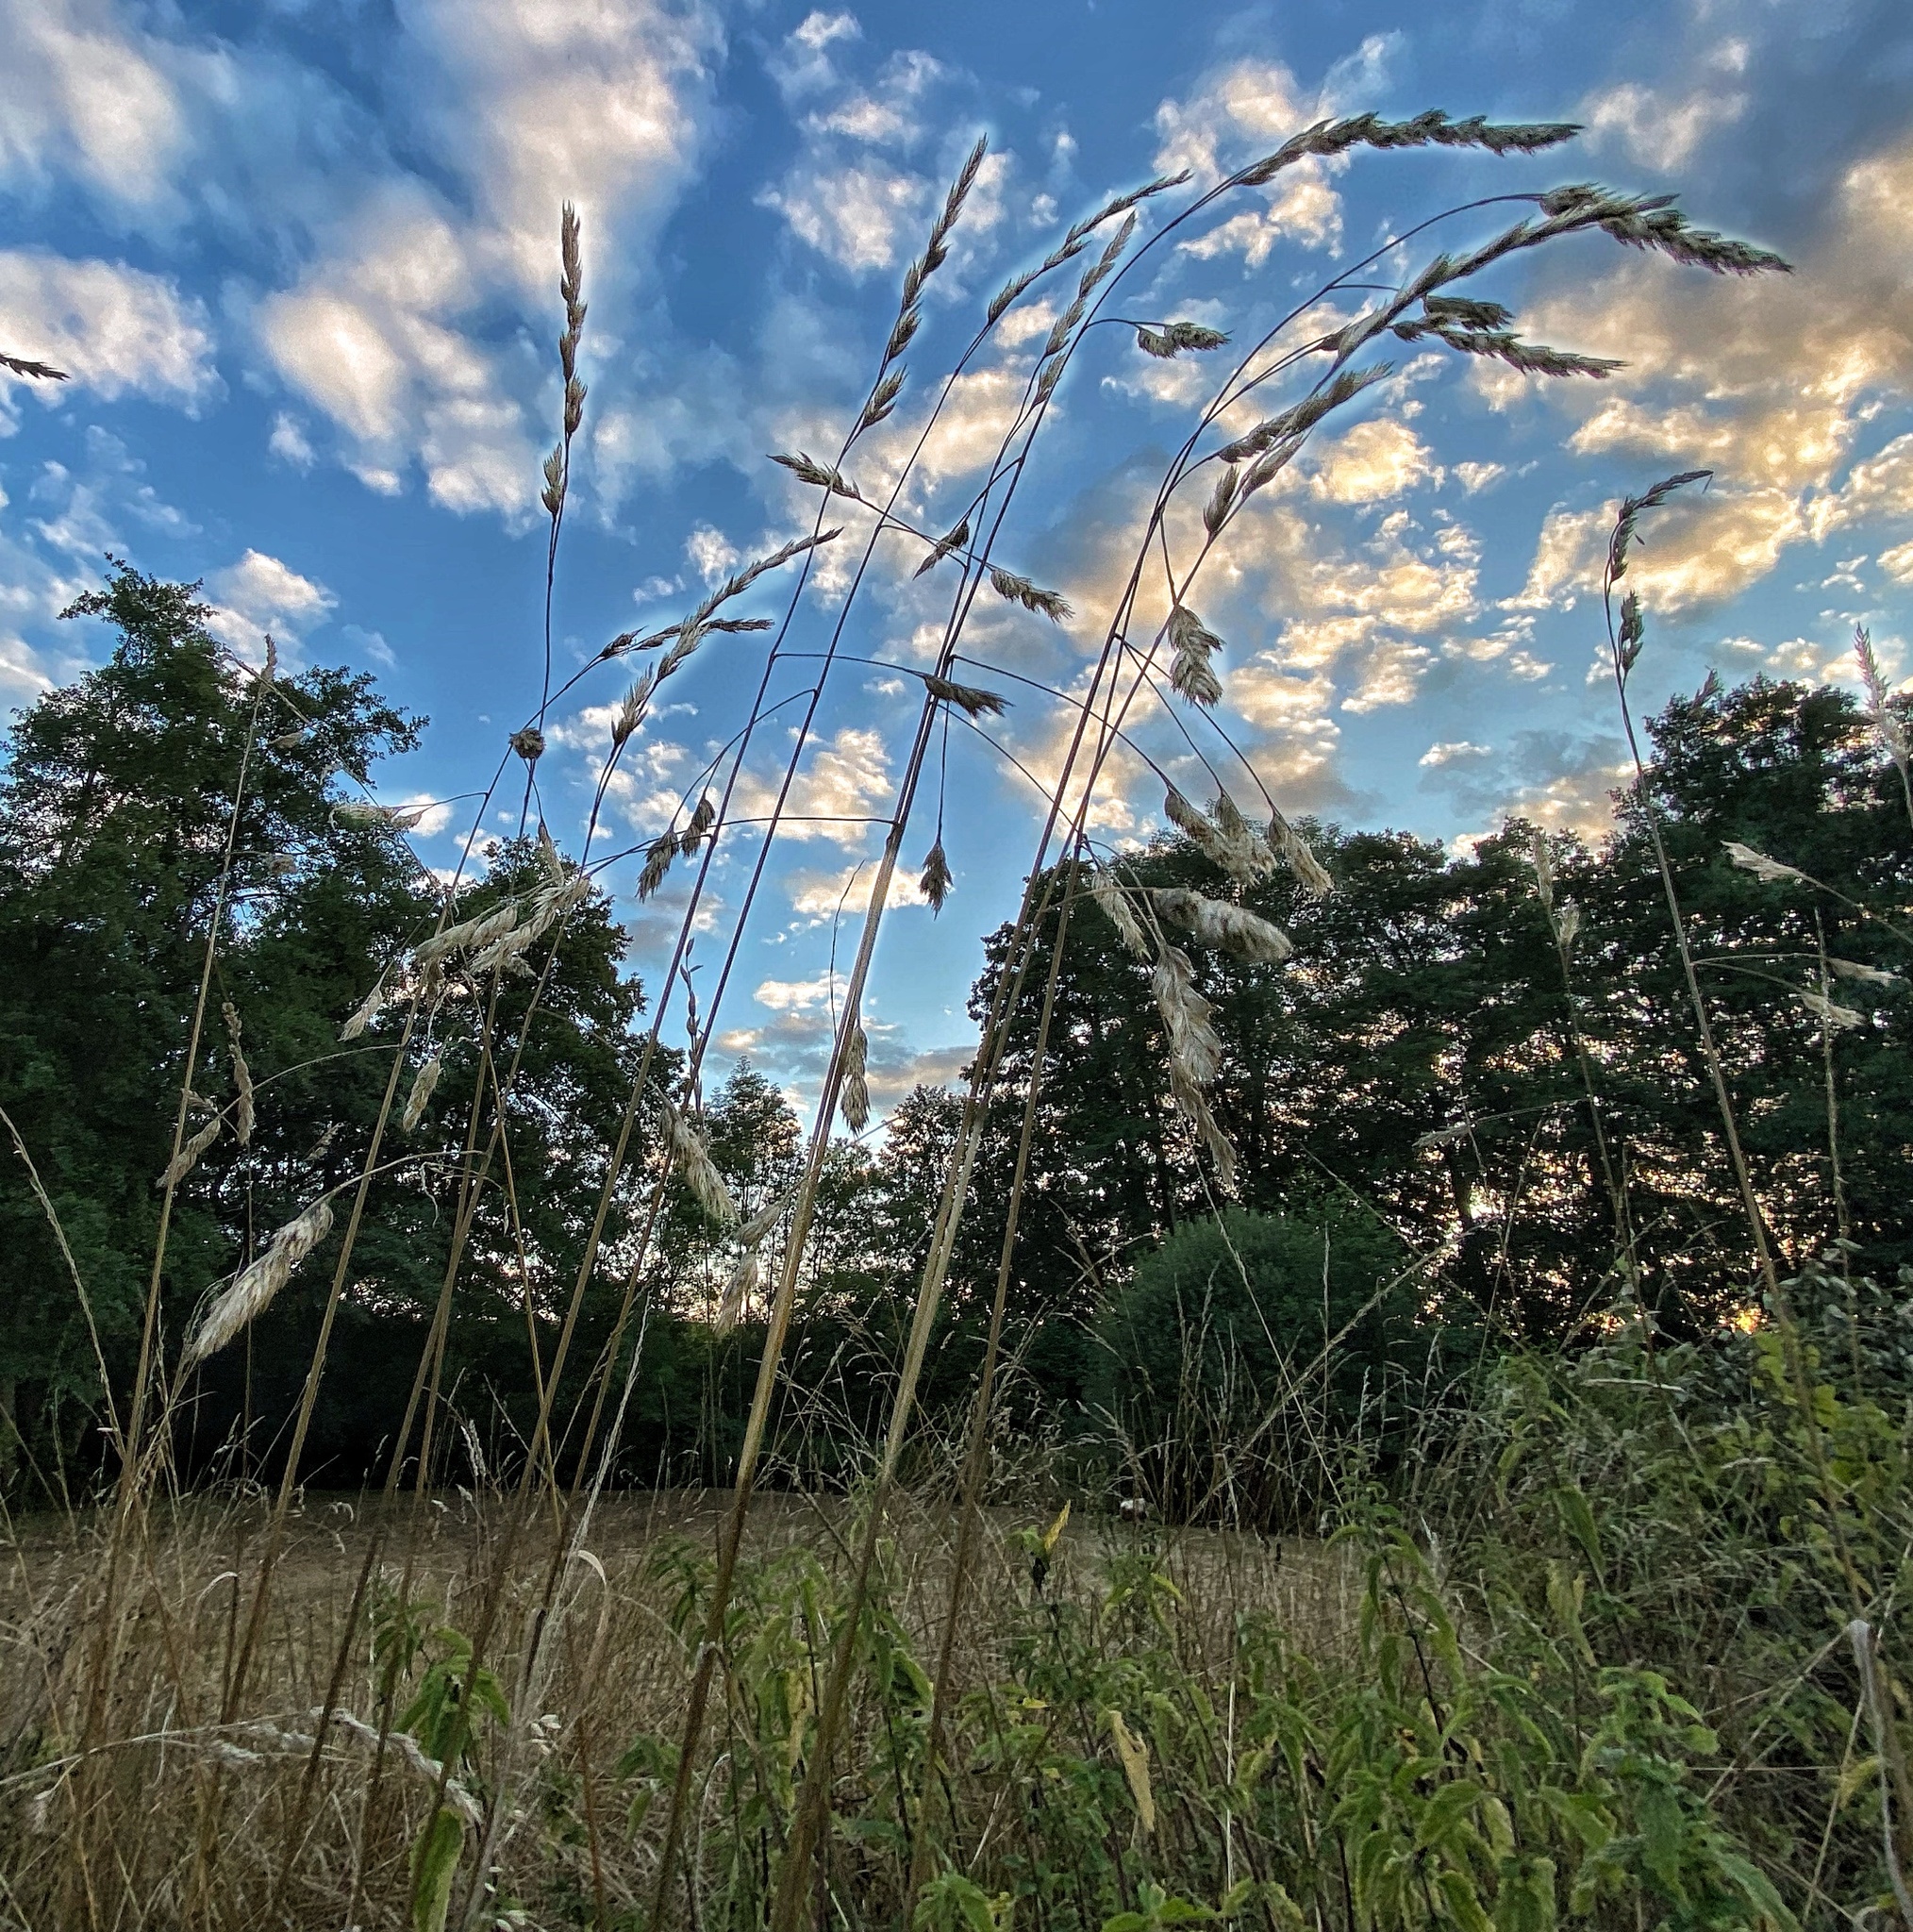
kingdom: Plantae
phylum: Tracheophyta
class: Liliopsida
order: Poales
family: Poaceae
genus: Dactylis
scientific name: Dactylis glomerata
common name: Orchardgrass
